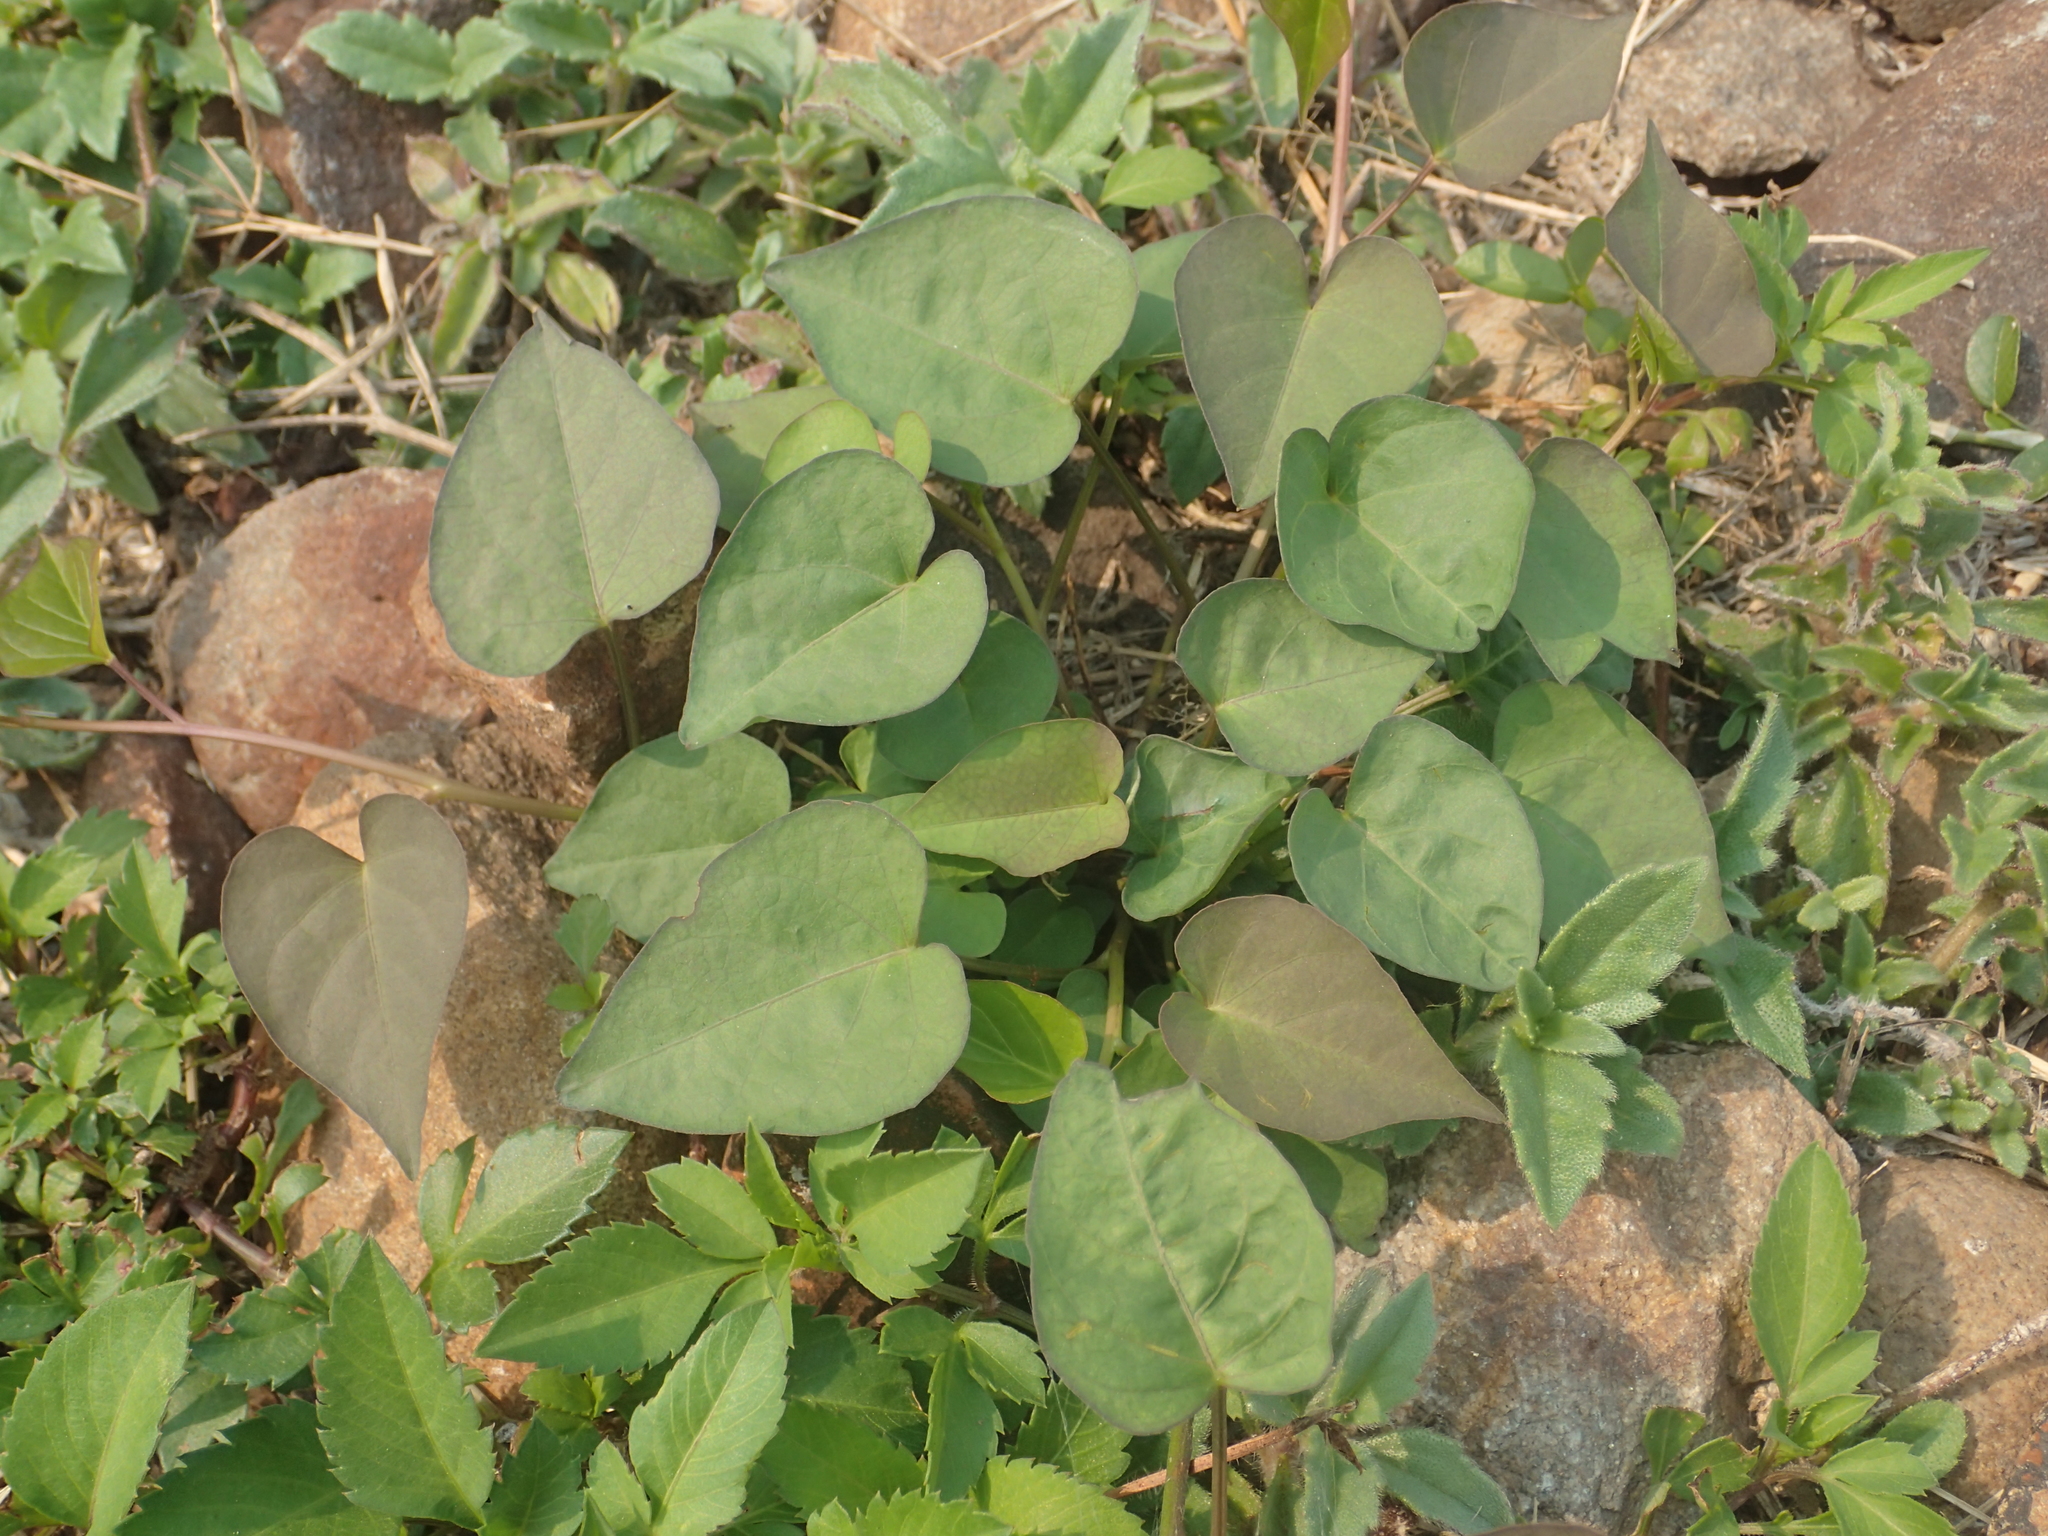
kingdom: Plantae
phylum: Tracheophyta
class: Magnoliopsida
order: Solanales
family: Convolvulaceae
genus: Ipomoea
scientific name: Ipomoea obscura
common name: Obscure morning-glory
